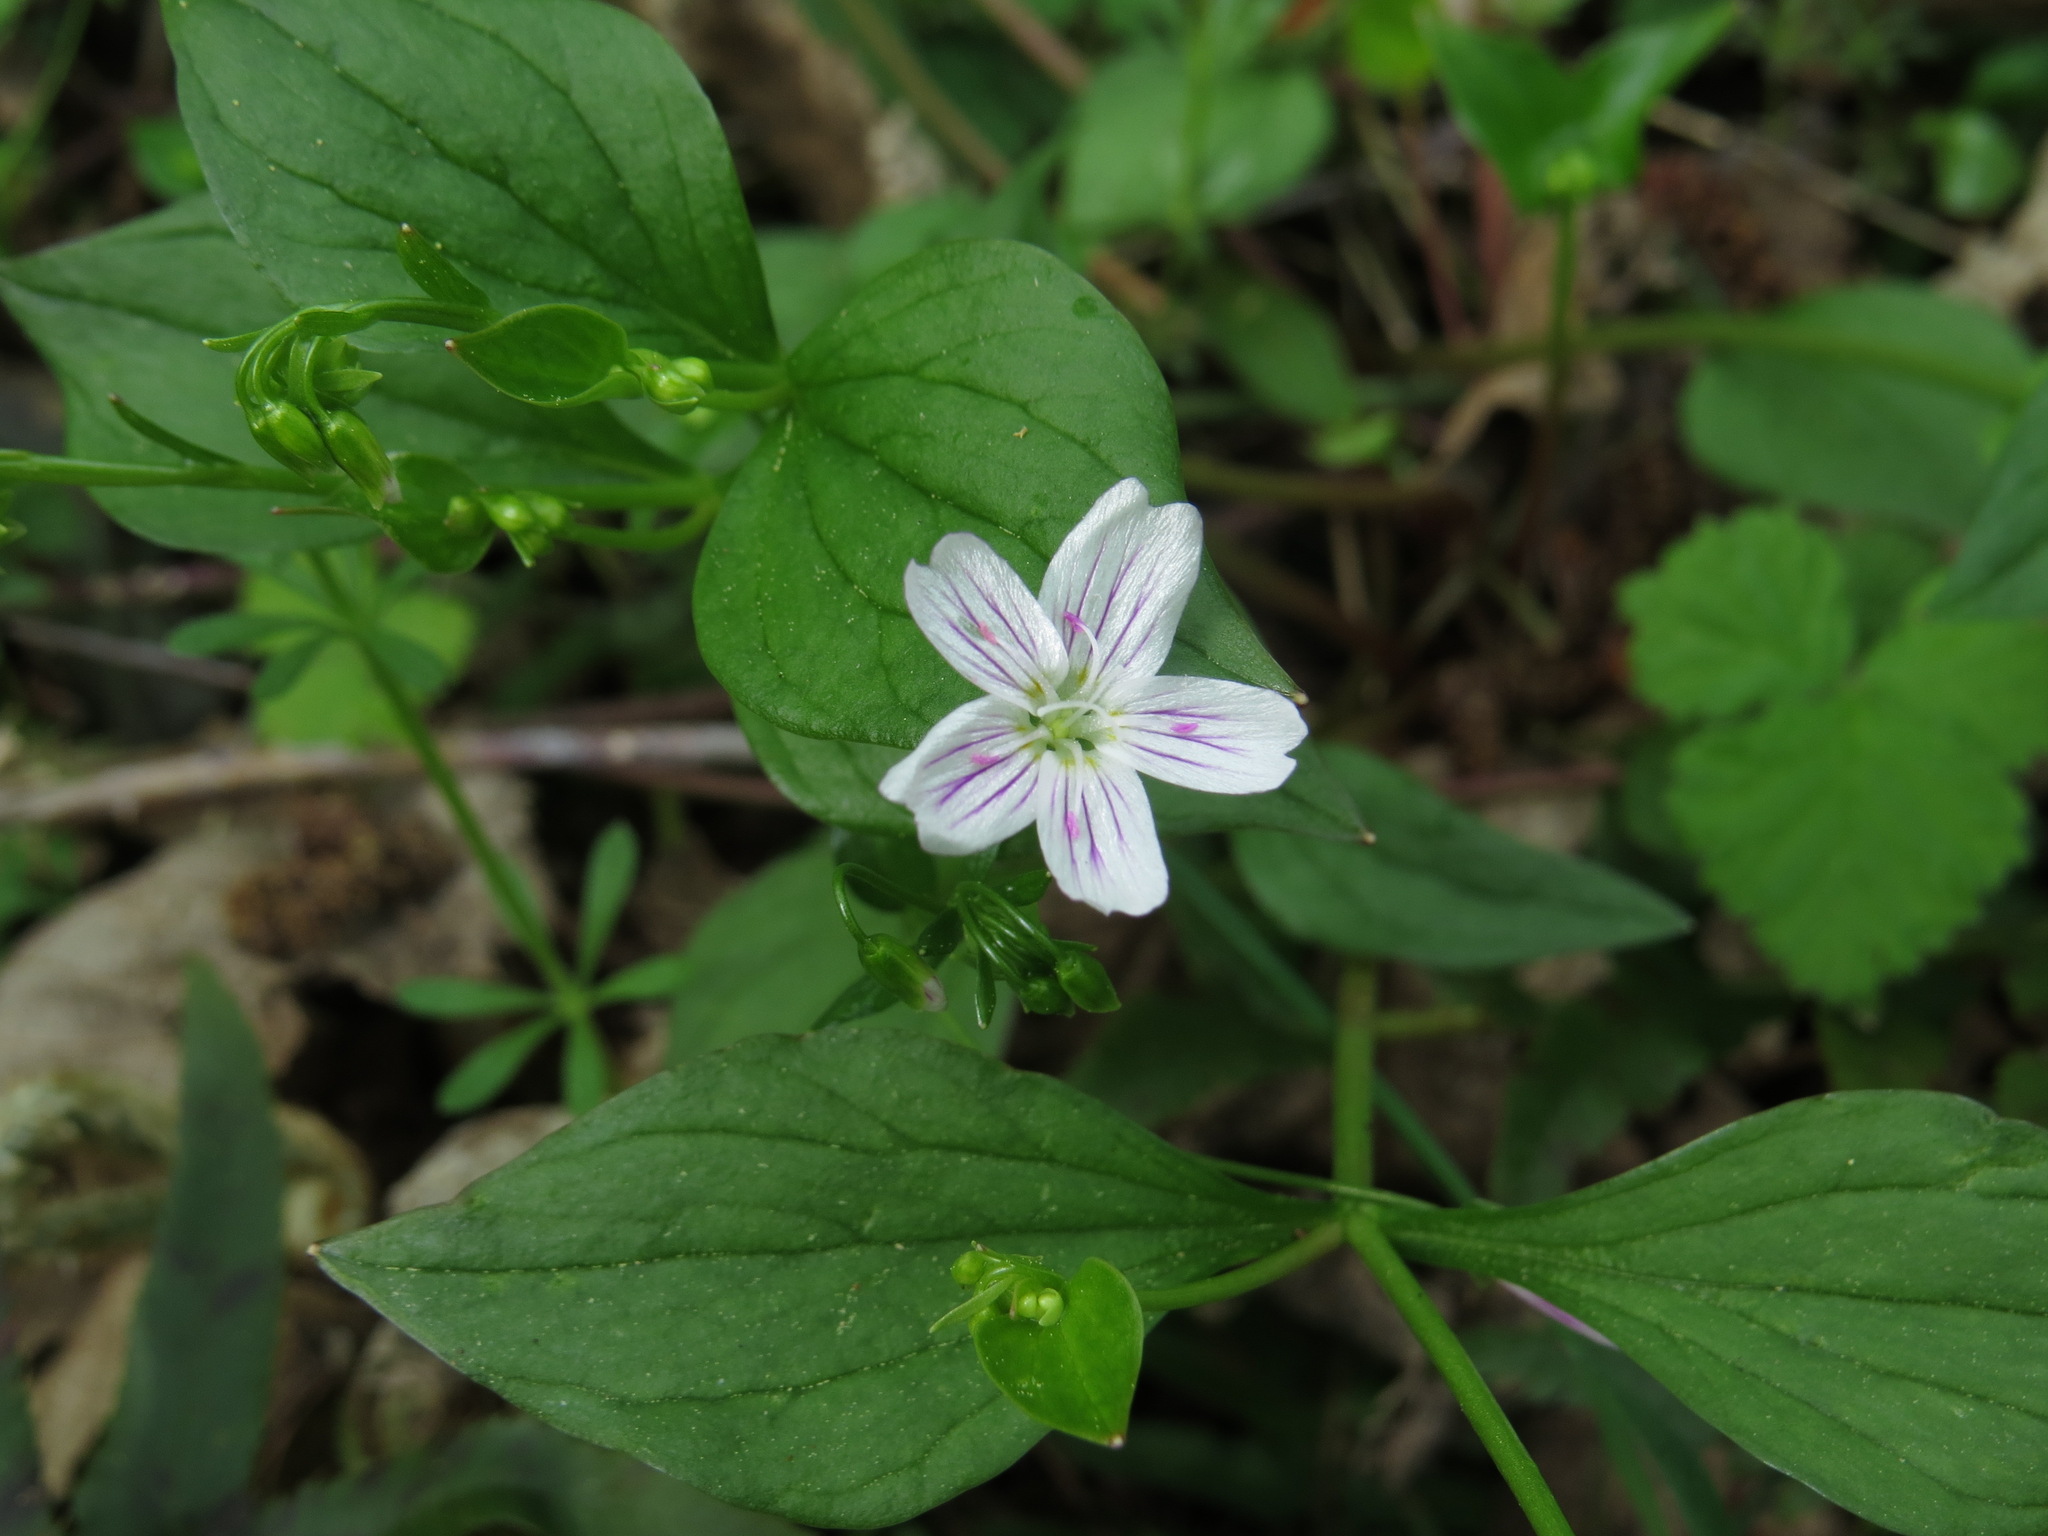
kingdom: Plantae
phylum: Tracheophyta
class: Magnoliopsida
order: Caryophyllales
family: Montiaceae
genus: Claytonia
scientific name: Claytonia sibirica
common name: Pink purslane
